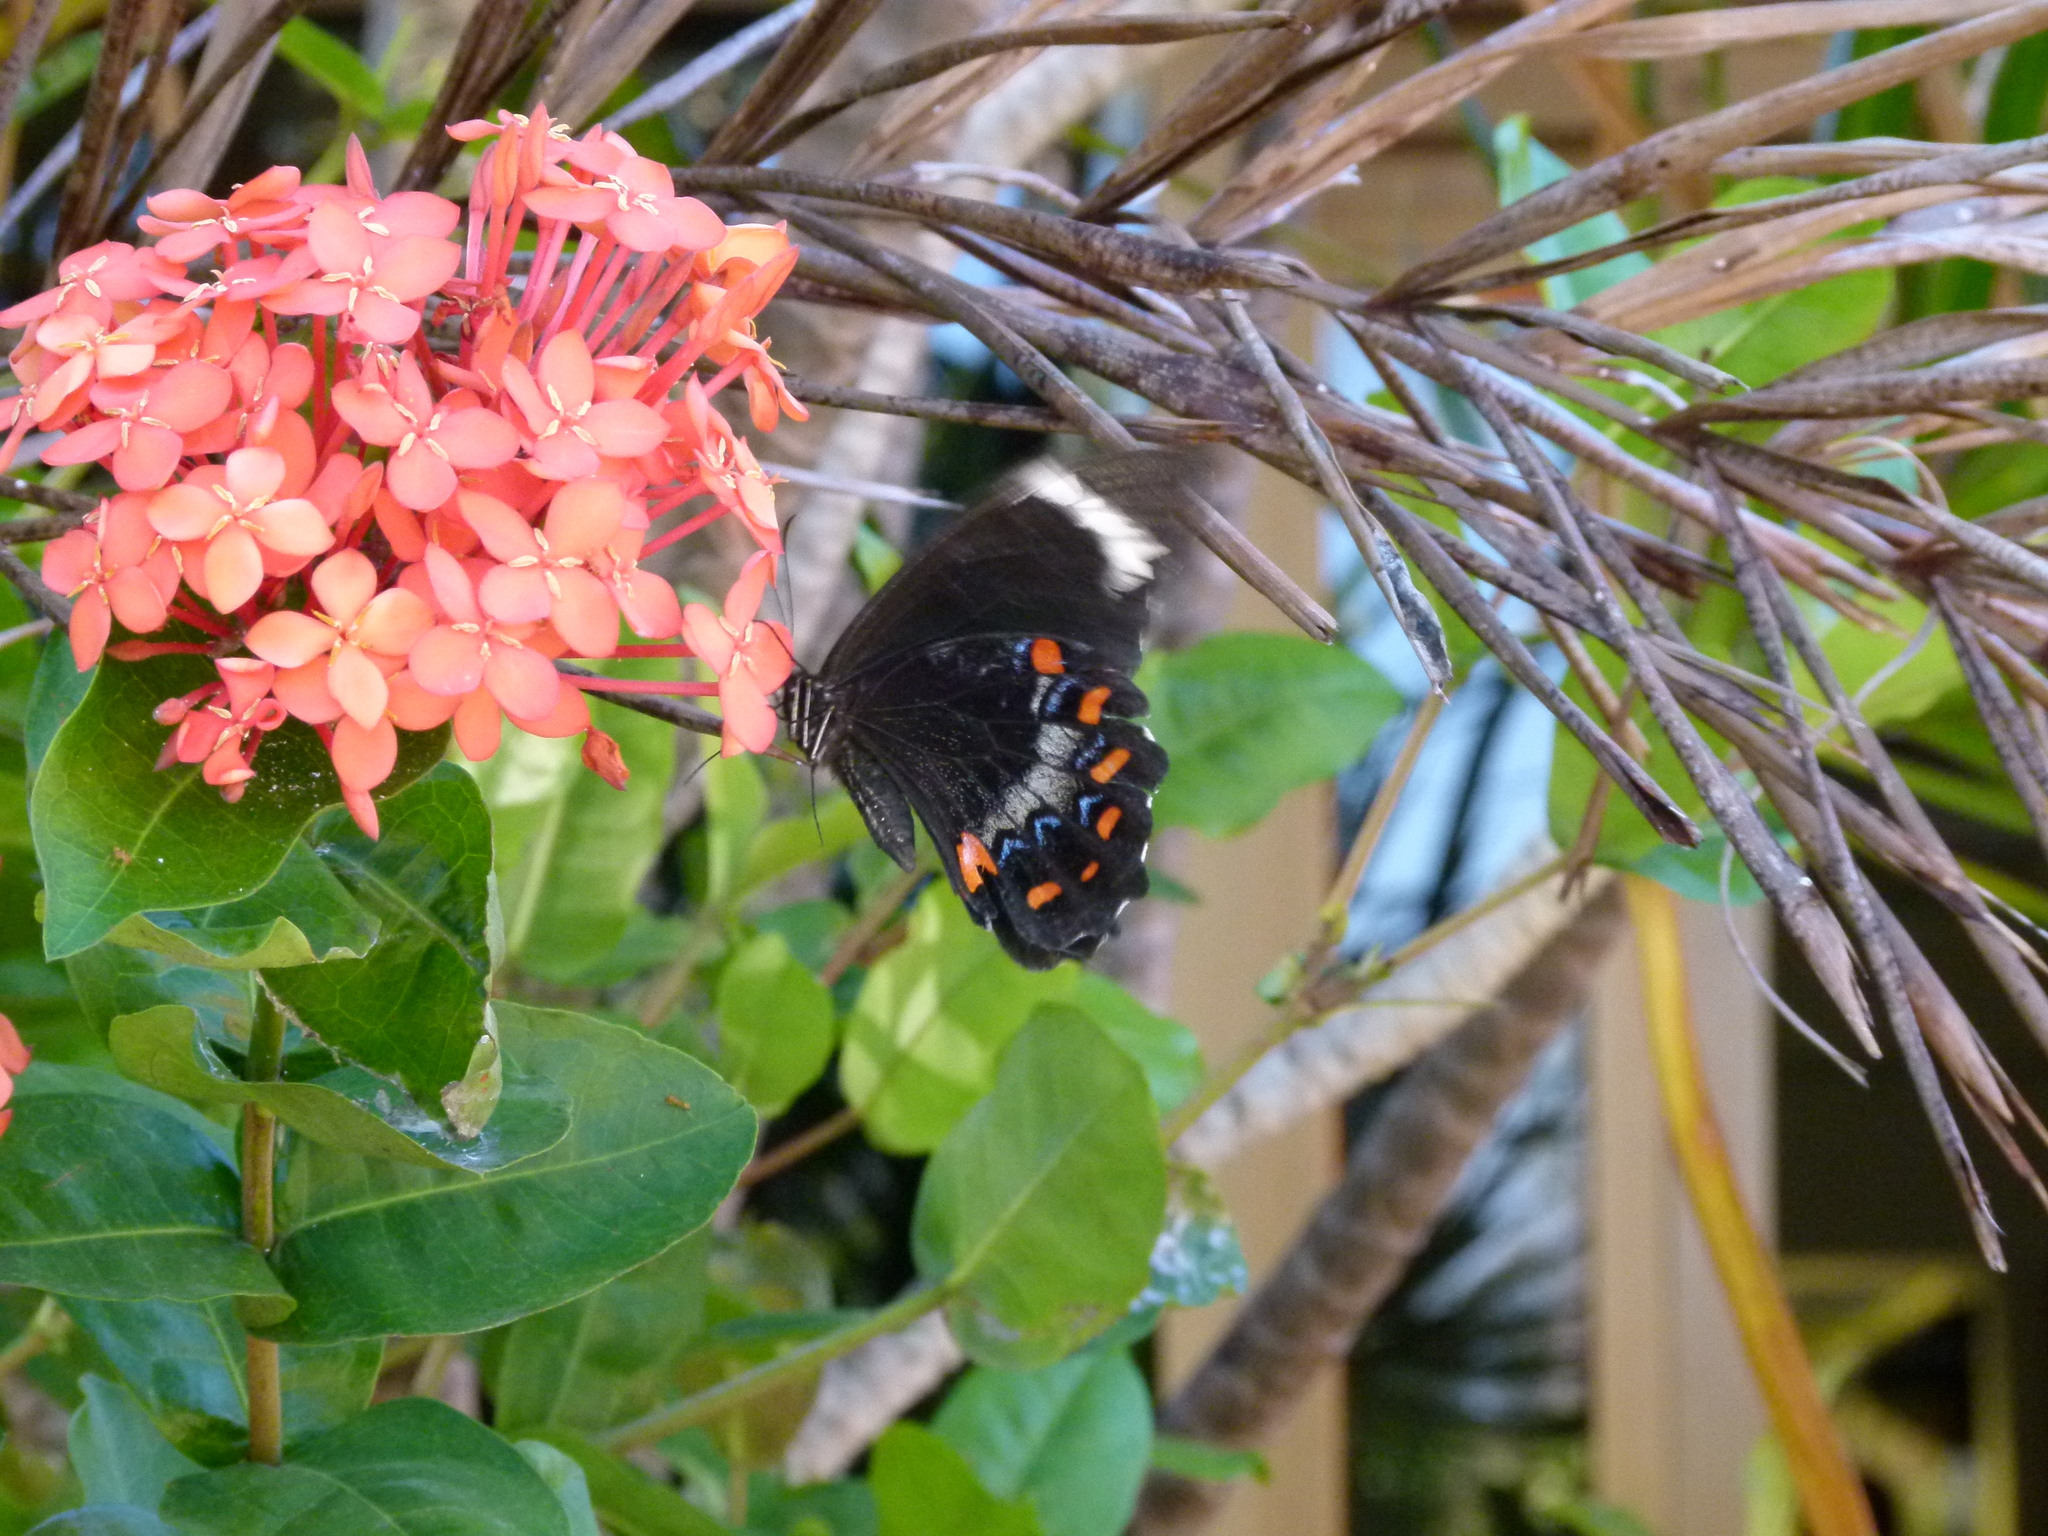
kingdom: Animalia
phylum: Arthropoda
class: Insecta
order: Lepidoptera
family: Papilionidae
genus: Papilio
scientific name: Papilio aegeus
